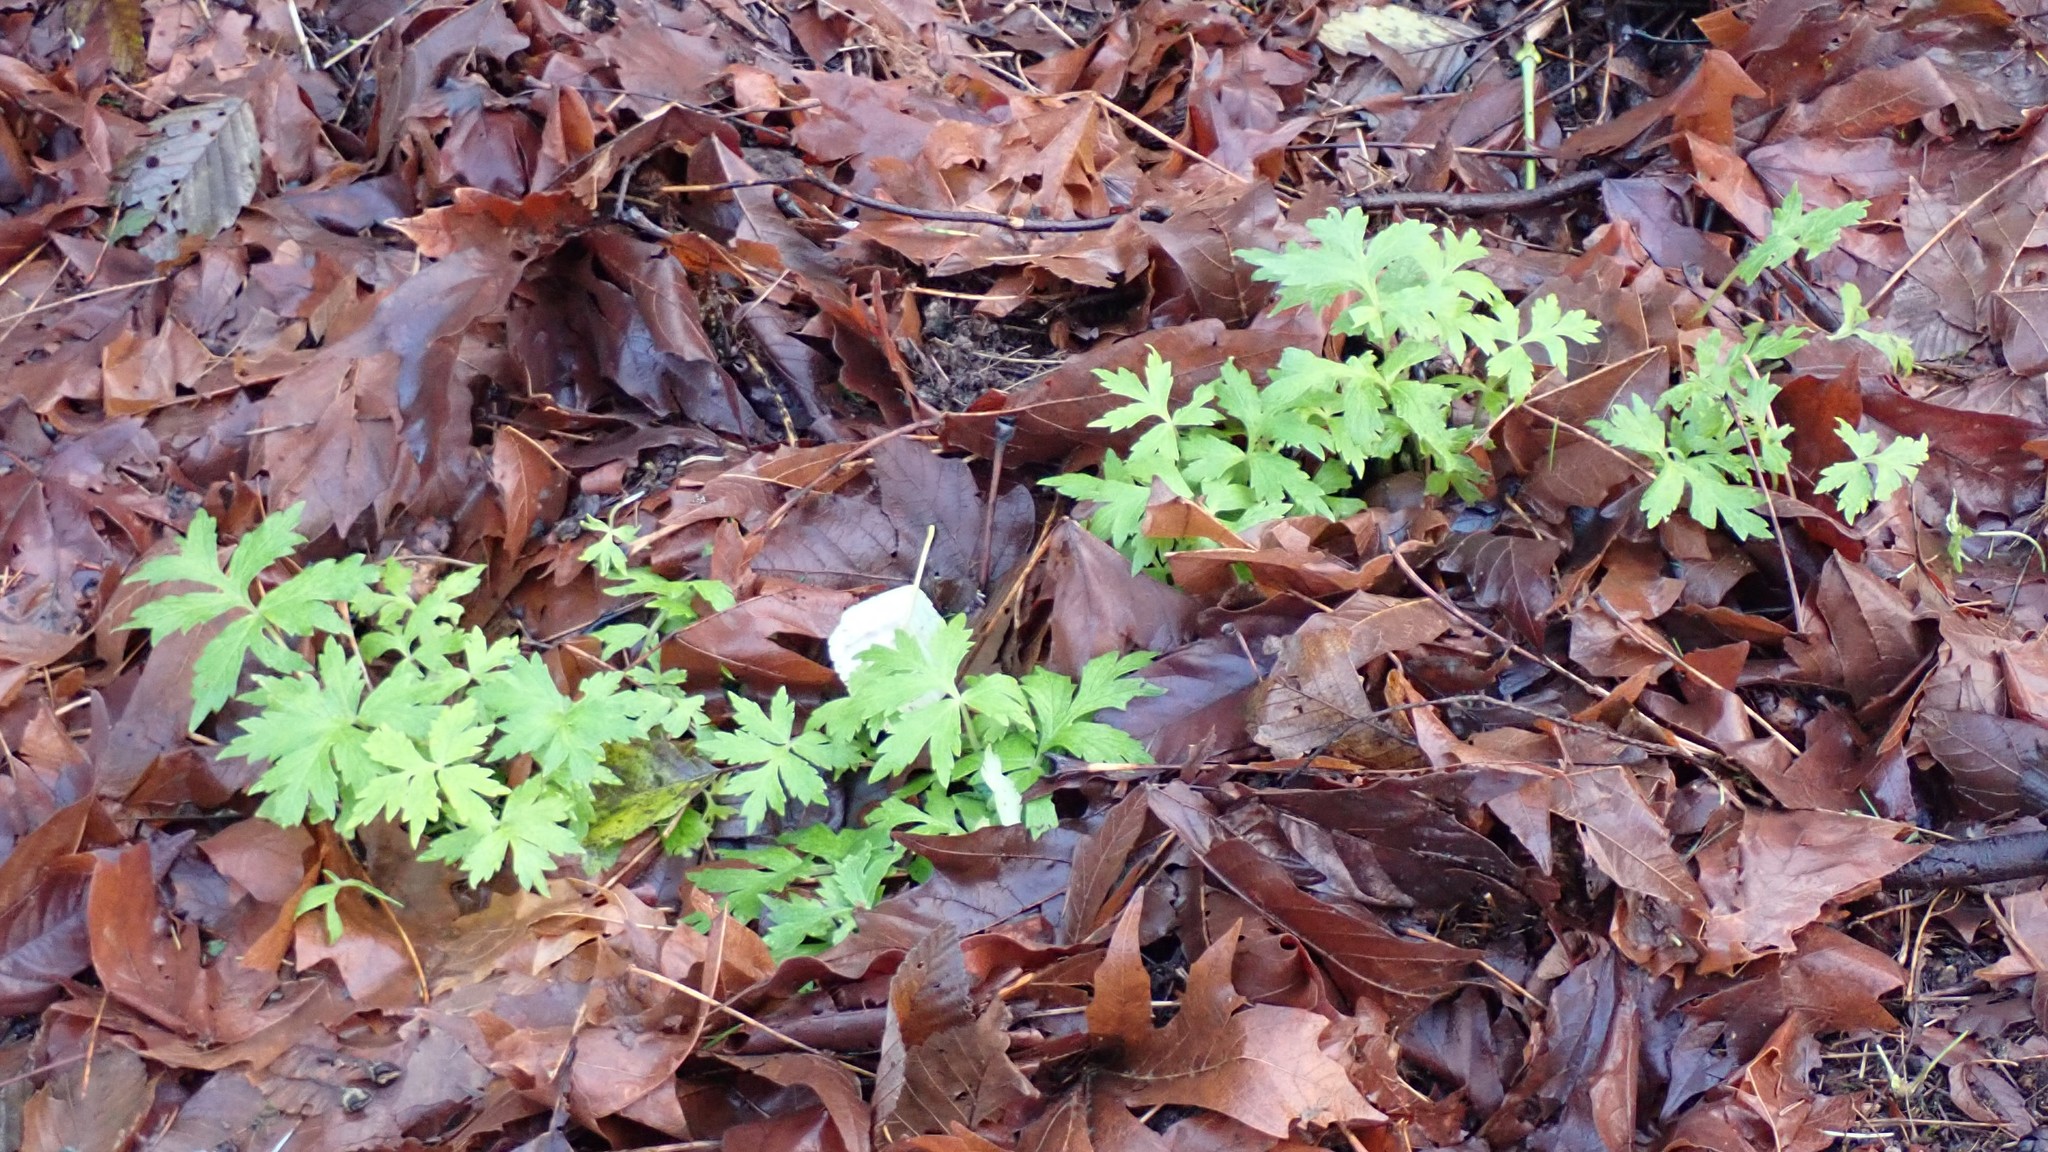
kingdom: Plantae
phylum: Tracheophyta
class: Magnoliopsida
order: Boraginales
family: Hydrophyllaceae
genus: Hydrophyllum
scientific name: Hydrophyllum tenuipes
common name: Pacific waterleaf
